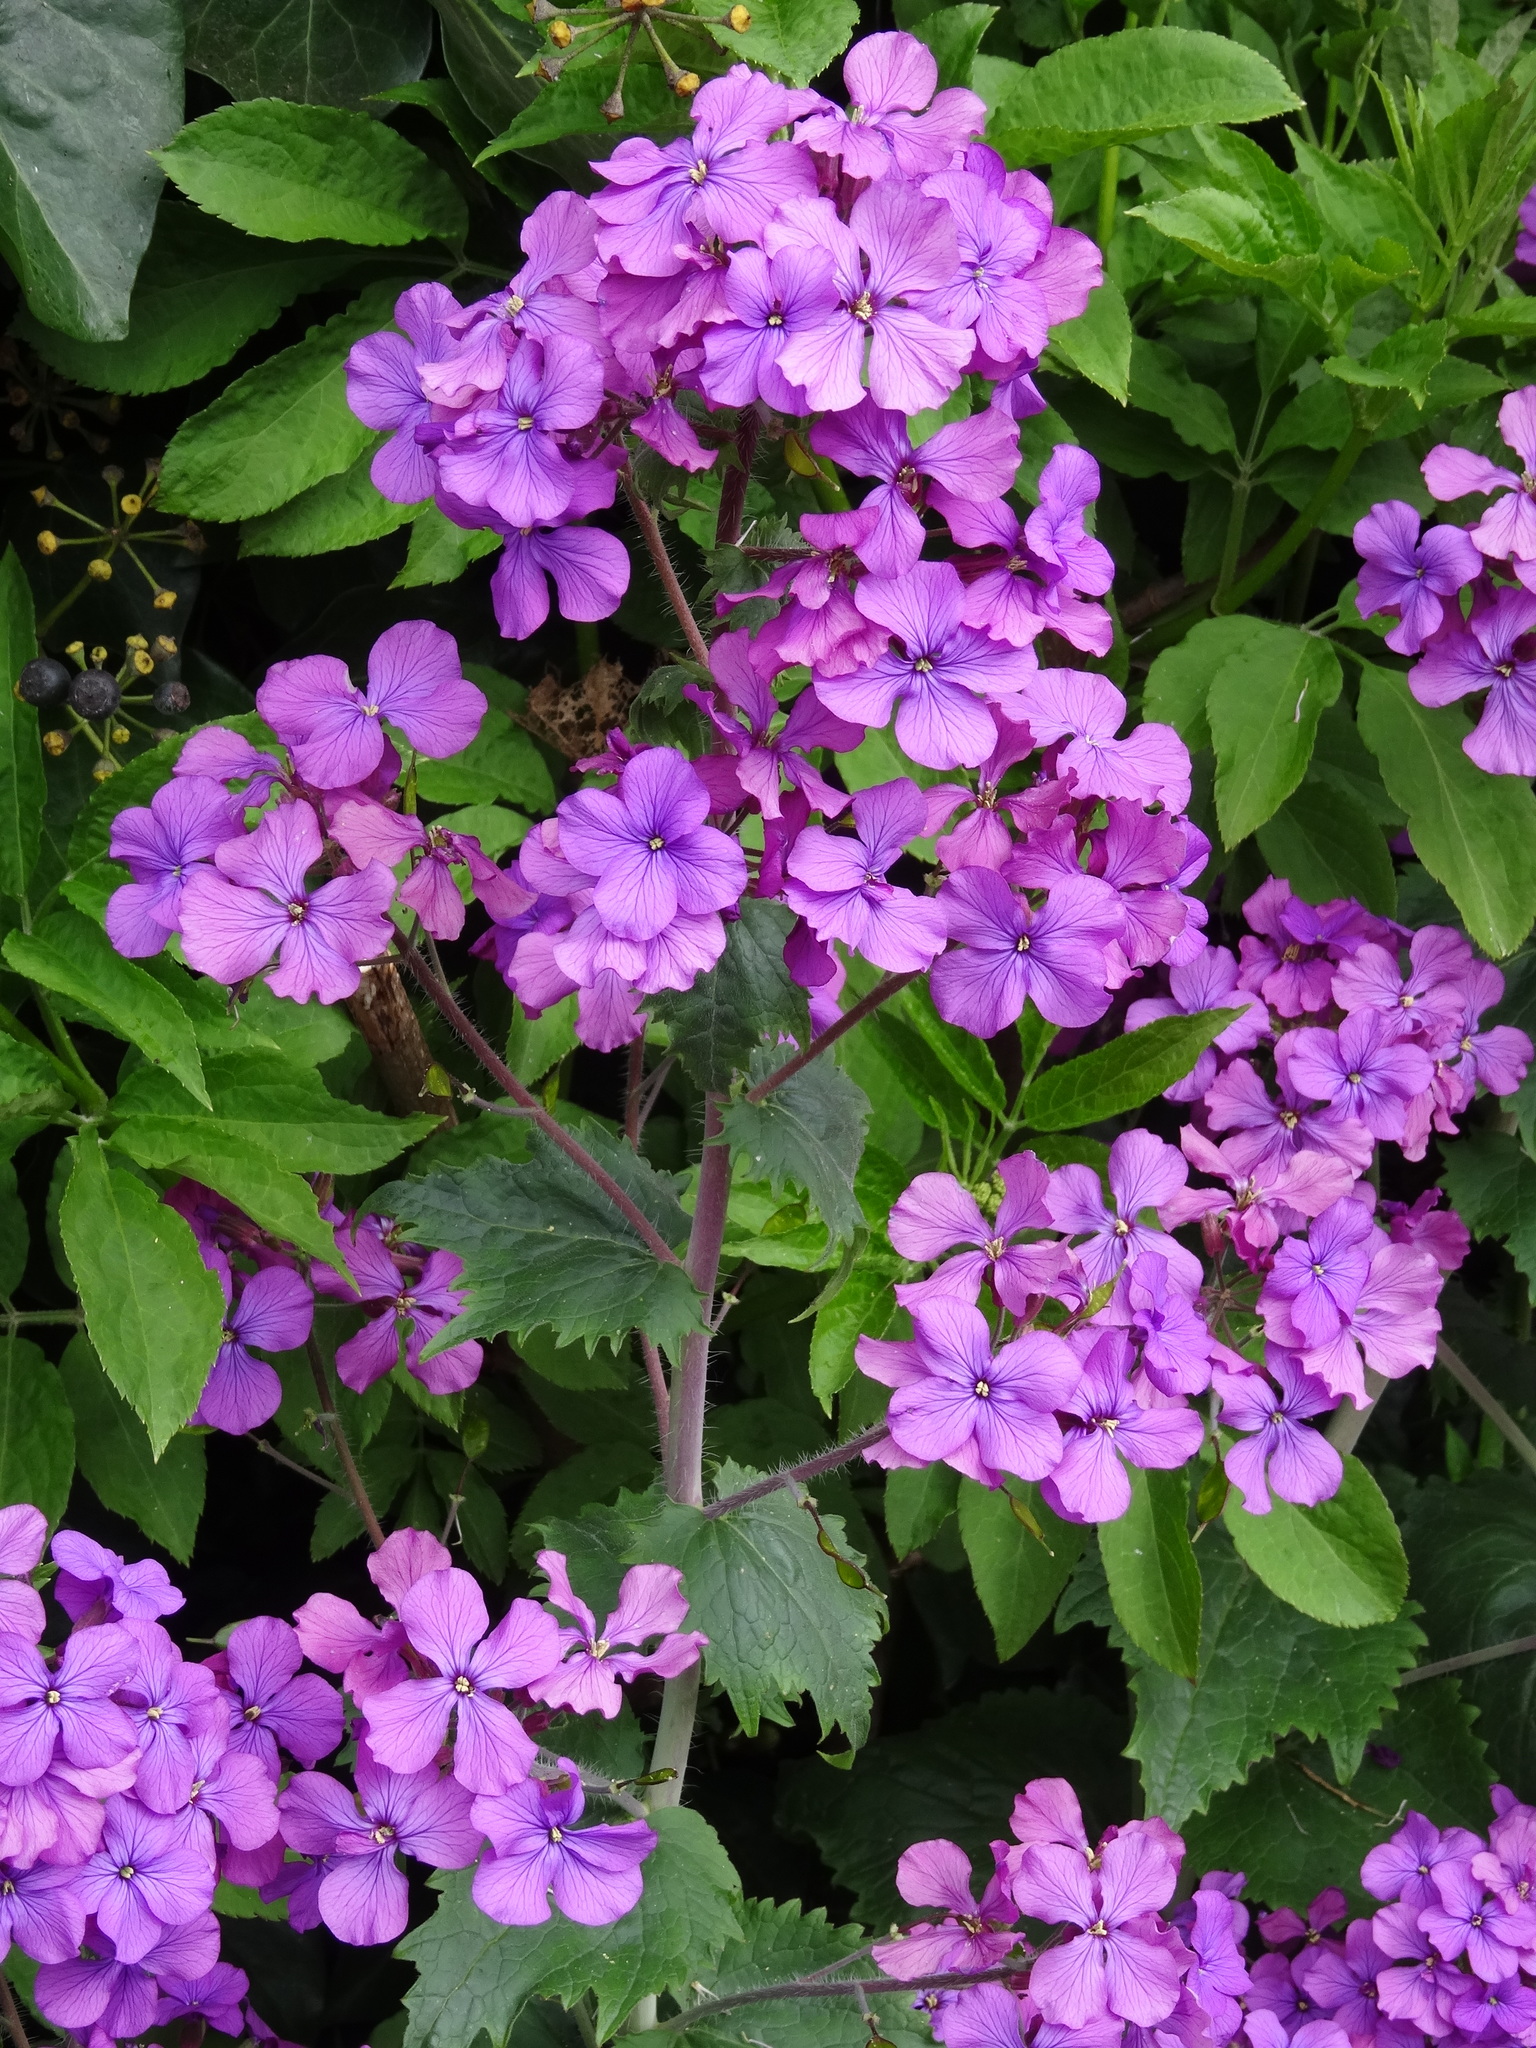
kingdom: Plantae
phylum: Tracheophyta
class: Magnoliopsida
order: Brassicales
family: Brassicaceae
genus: Lunaria
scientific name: Lunaria annua
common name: Honesty
